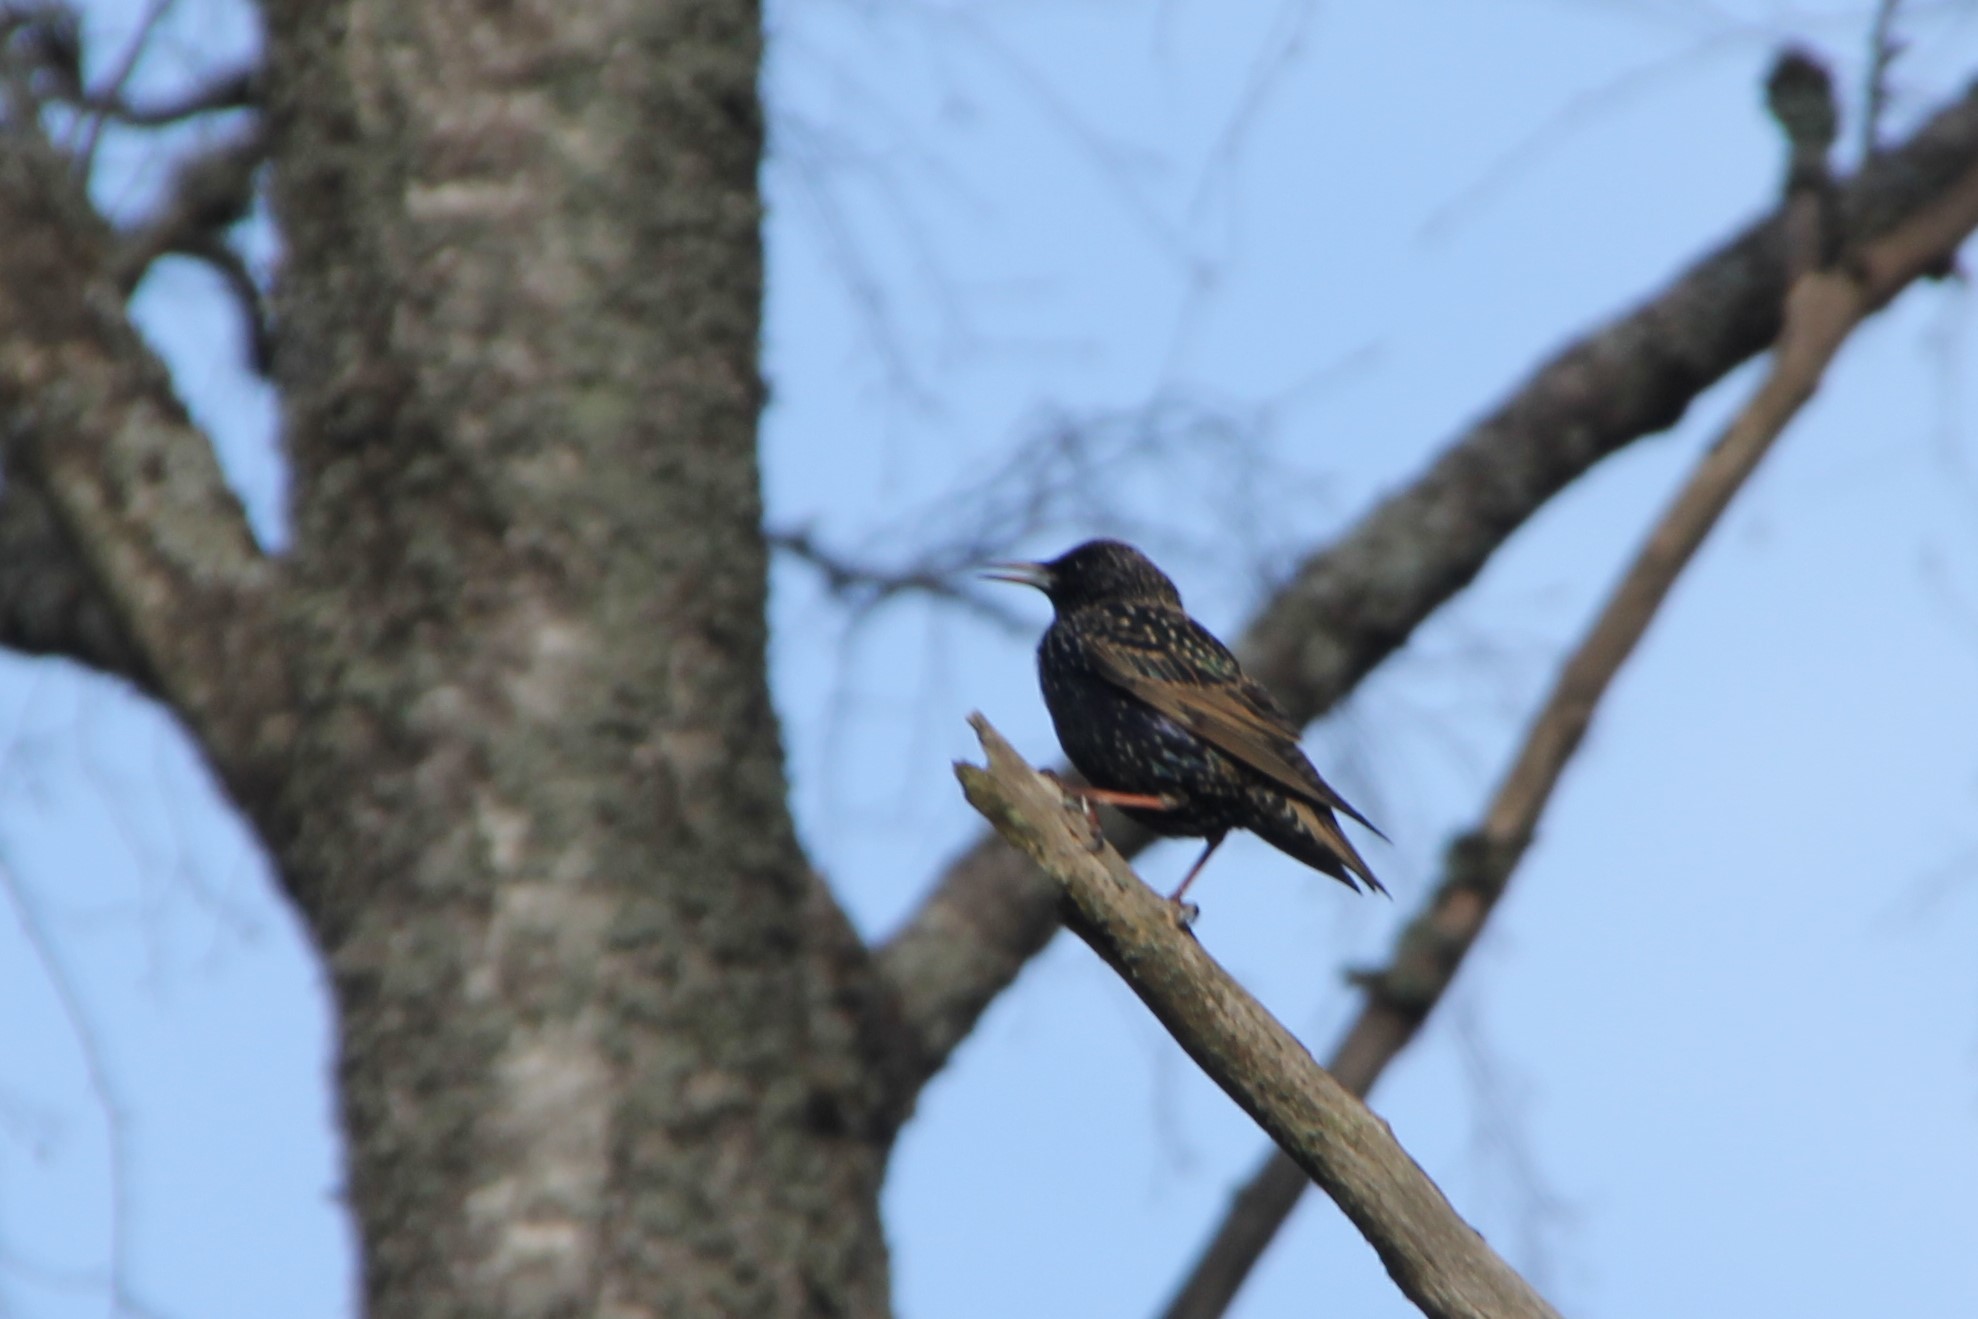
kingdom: Animalia
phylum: Chordata
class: Aves
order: Passeriformes
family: Sturnidae
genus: Sturnus
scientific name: Sturnus vulgaris
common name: Common starling
